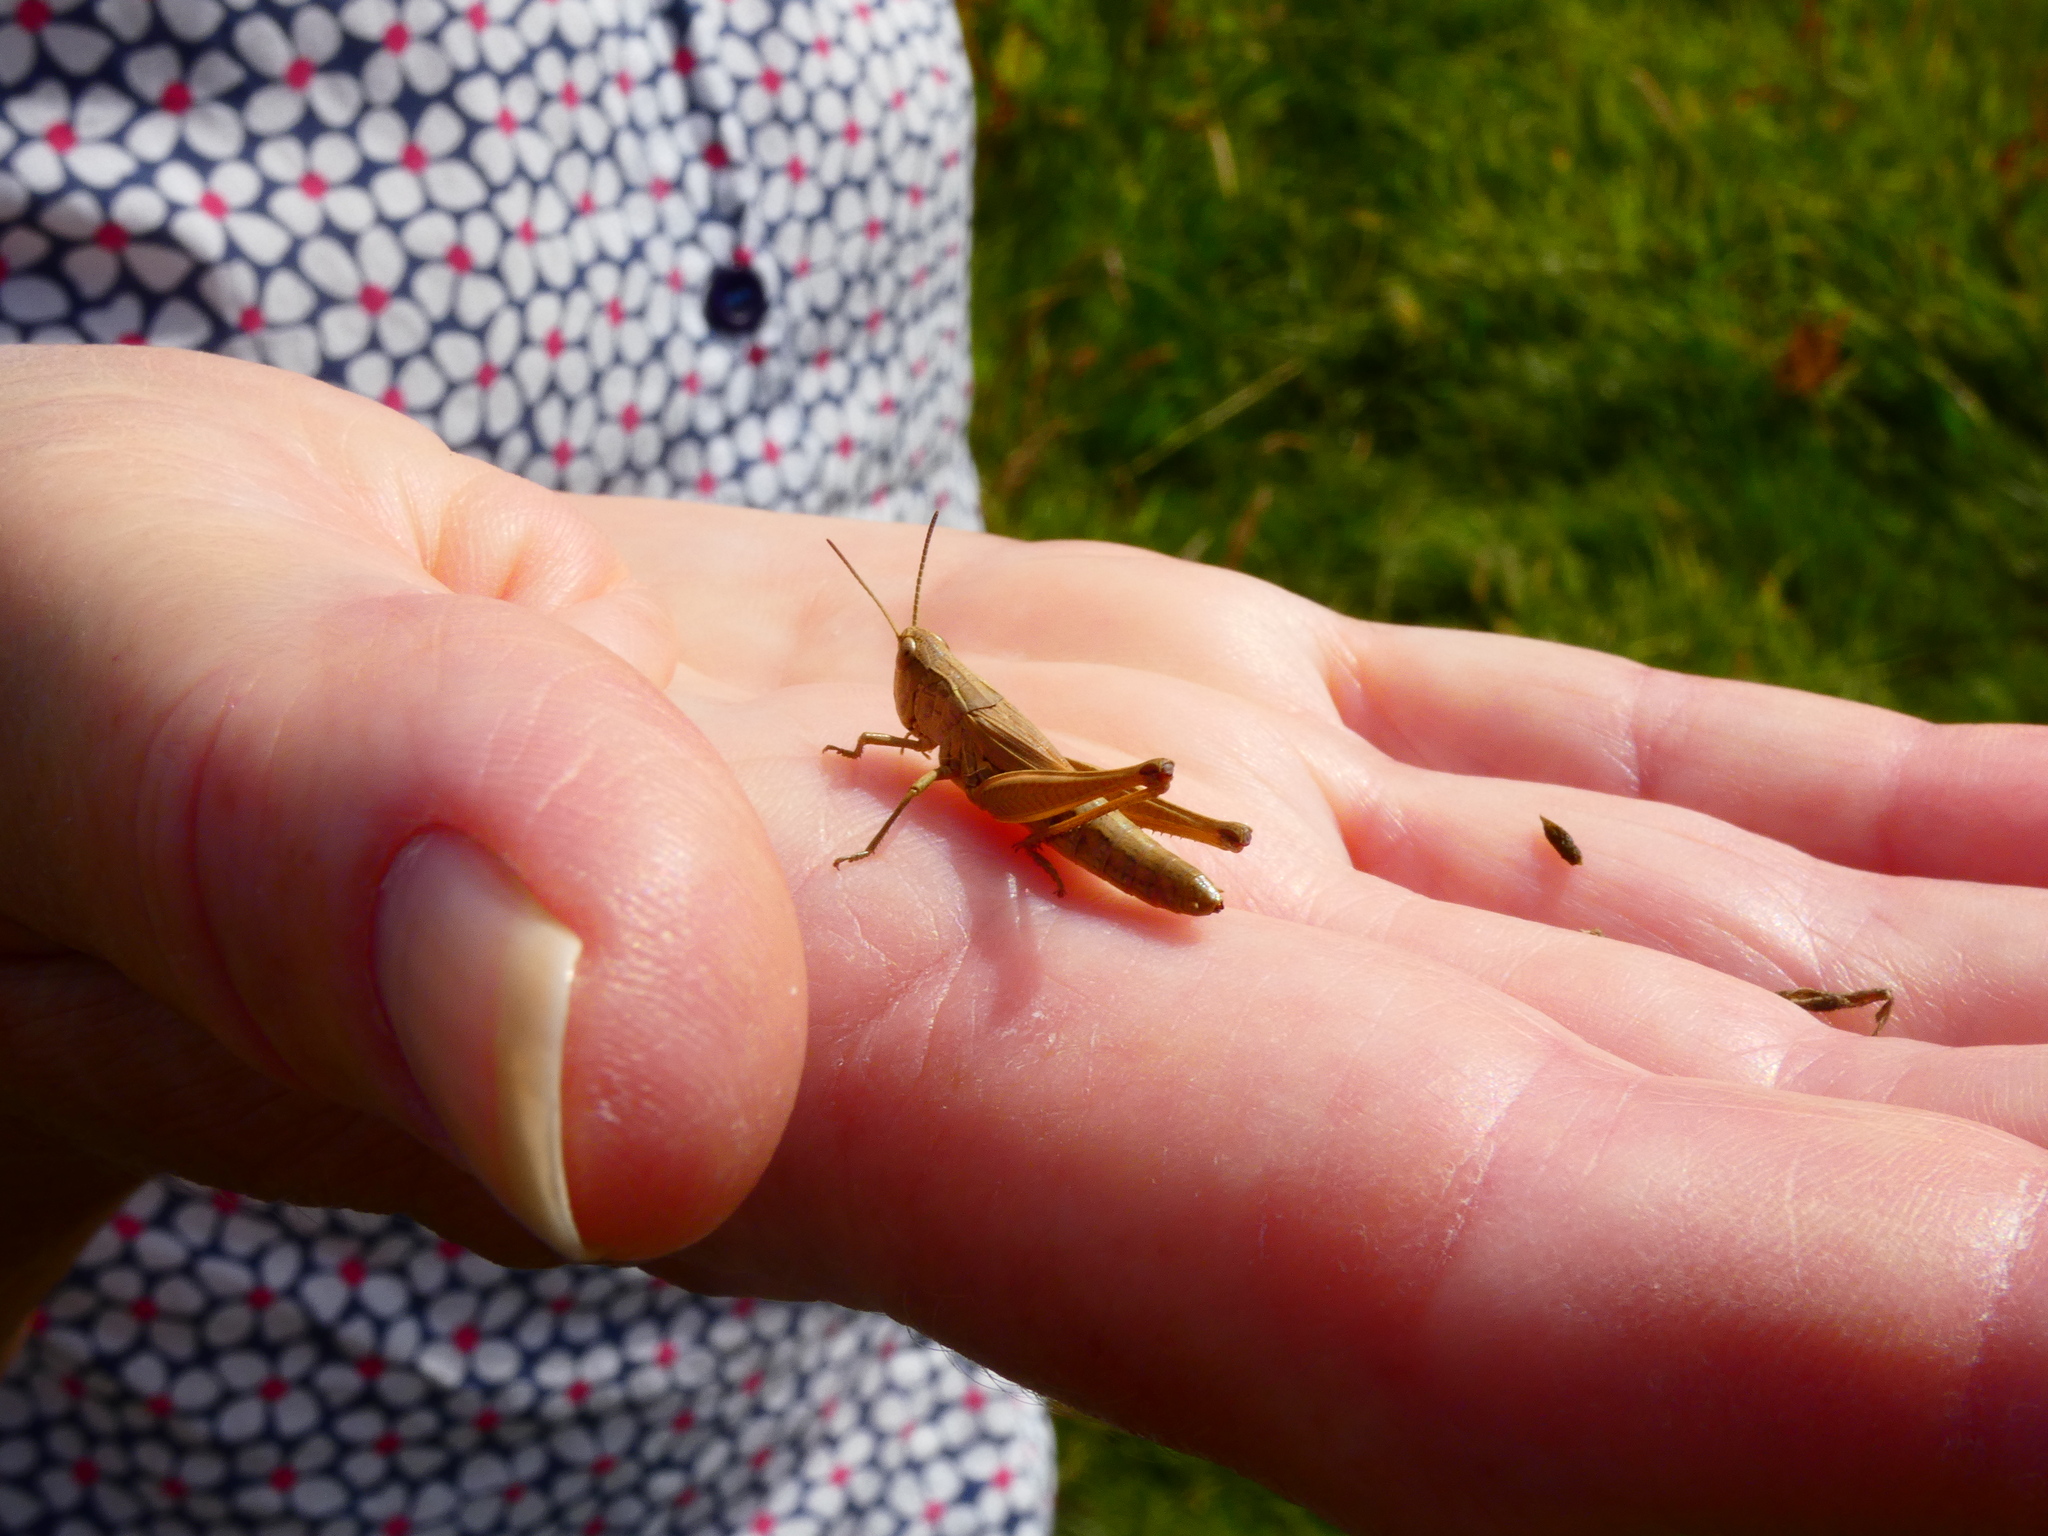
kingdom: Animalia
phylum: Arthropoda
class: Insecta
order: Orthoptera
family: Acrididae
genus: Pseudochorthippus
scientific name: Pseudochorthippus parallelus
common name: Meadow grasshopper
